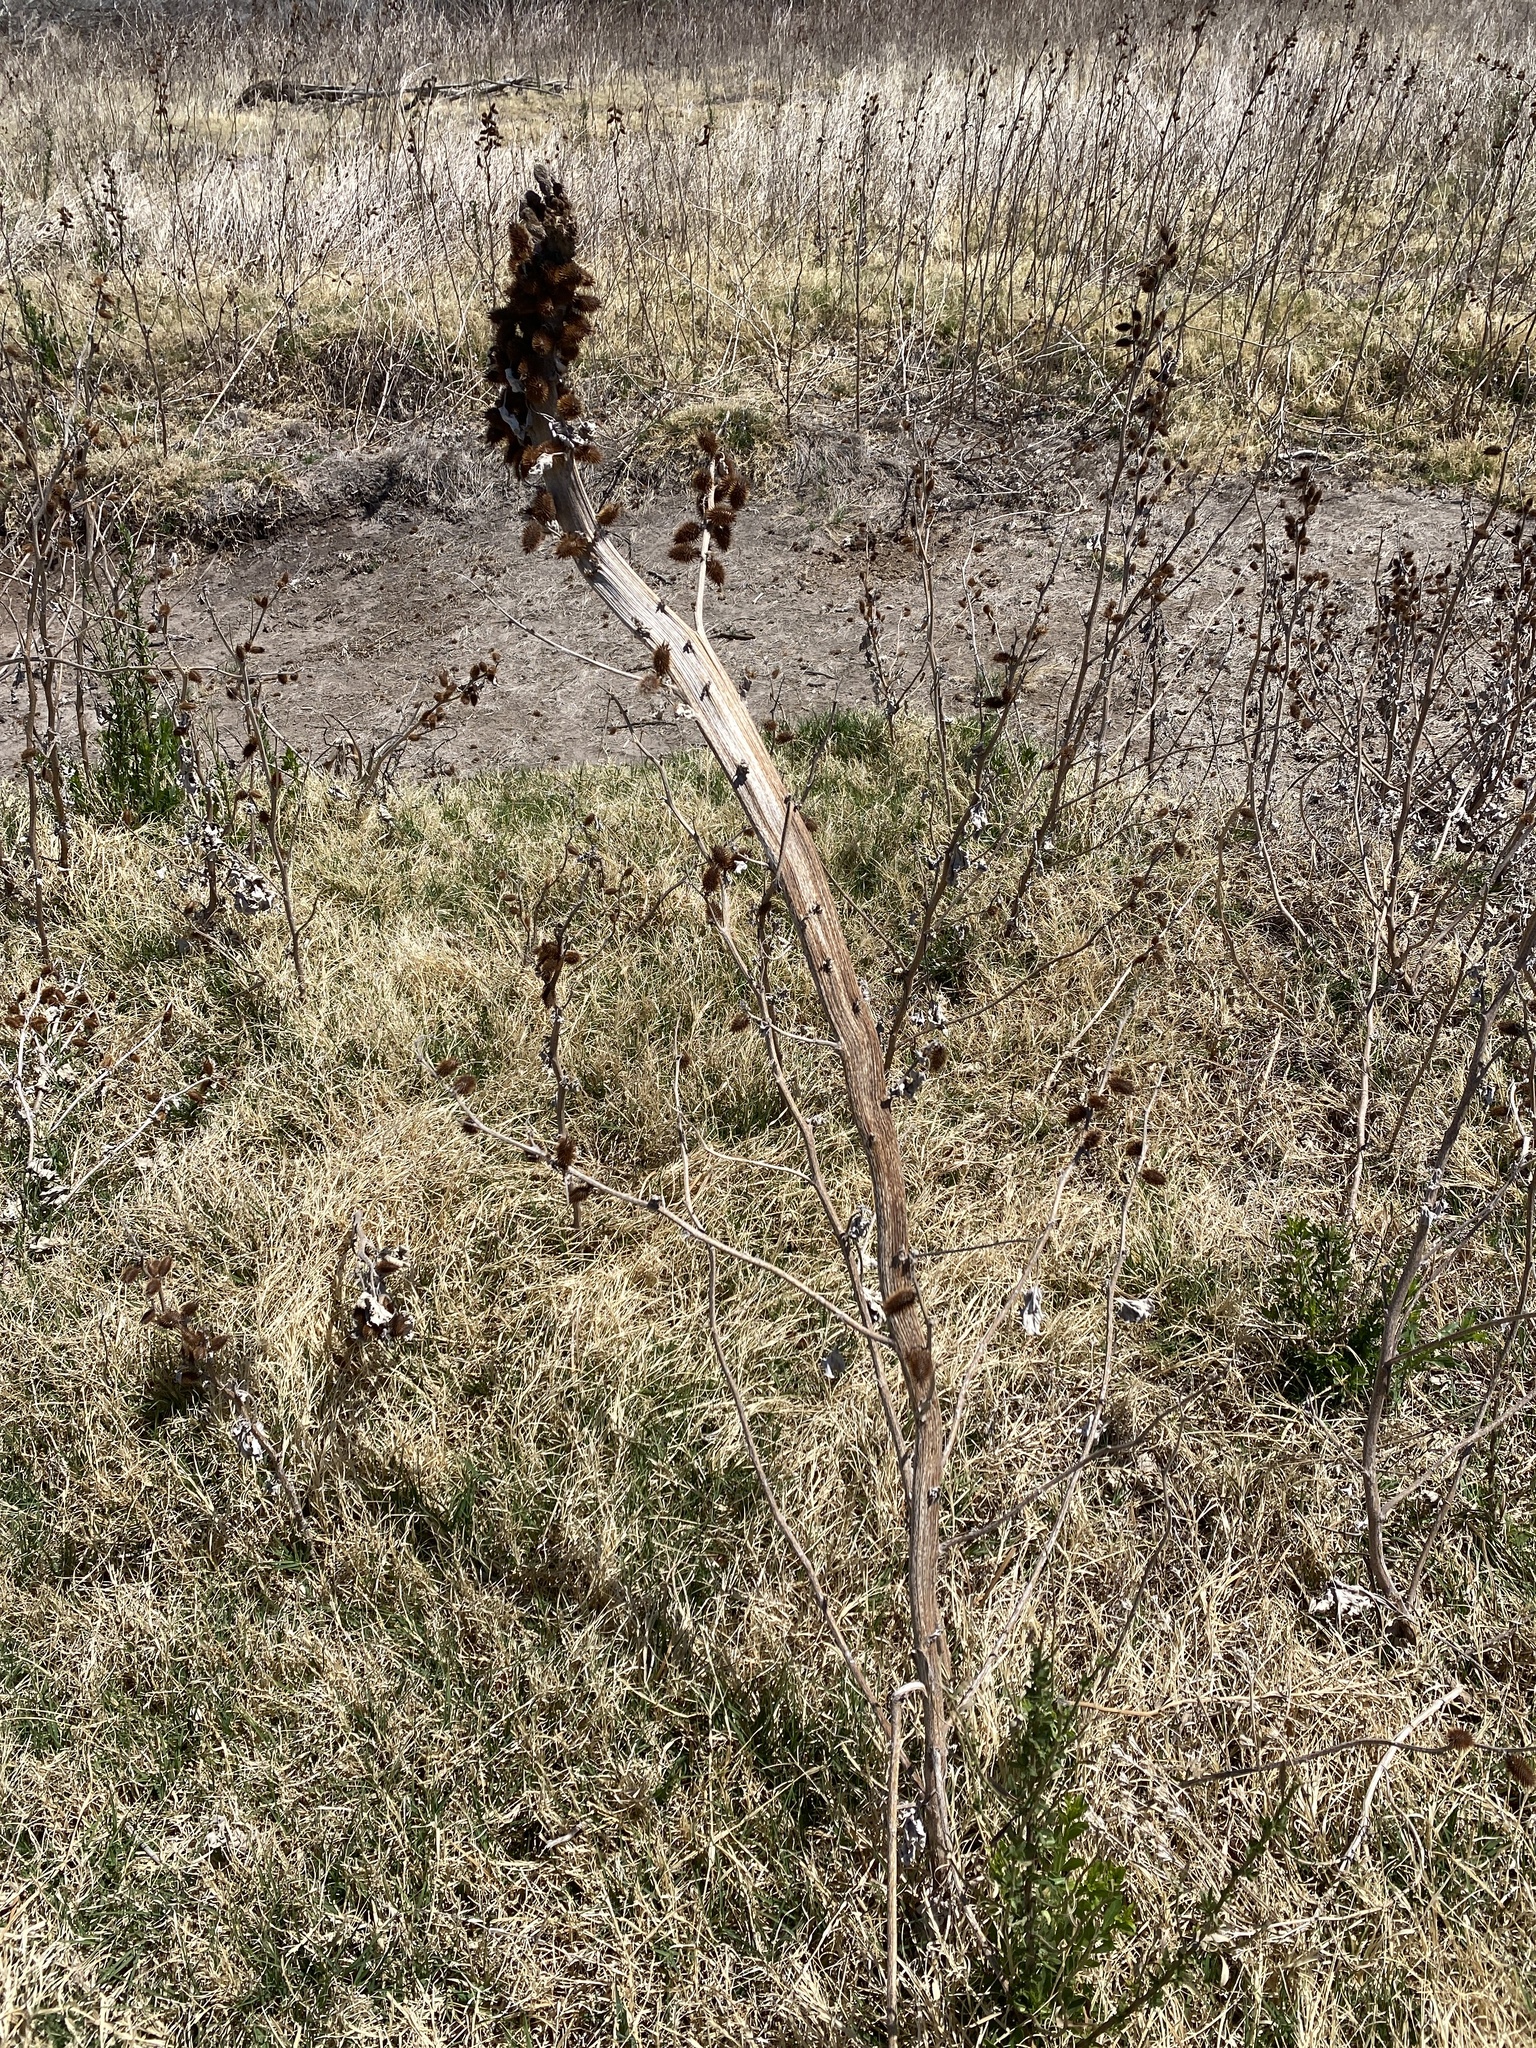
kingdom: Plantae
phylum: Tracheophyta
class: Magnoliopsida
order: Asterales
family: Asteraceae
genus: Xanthium
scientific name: Xanthium strumarium
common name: Rough cocklebur
